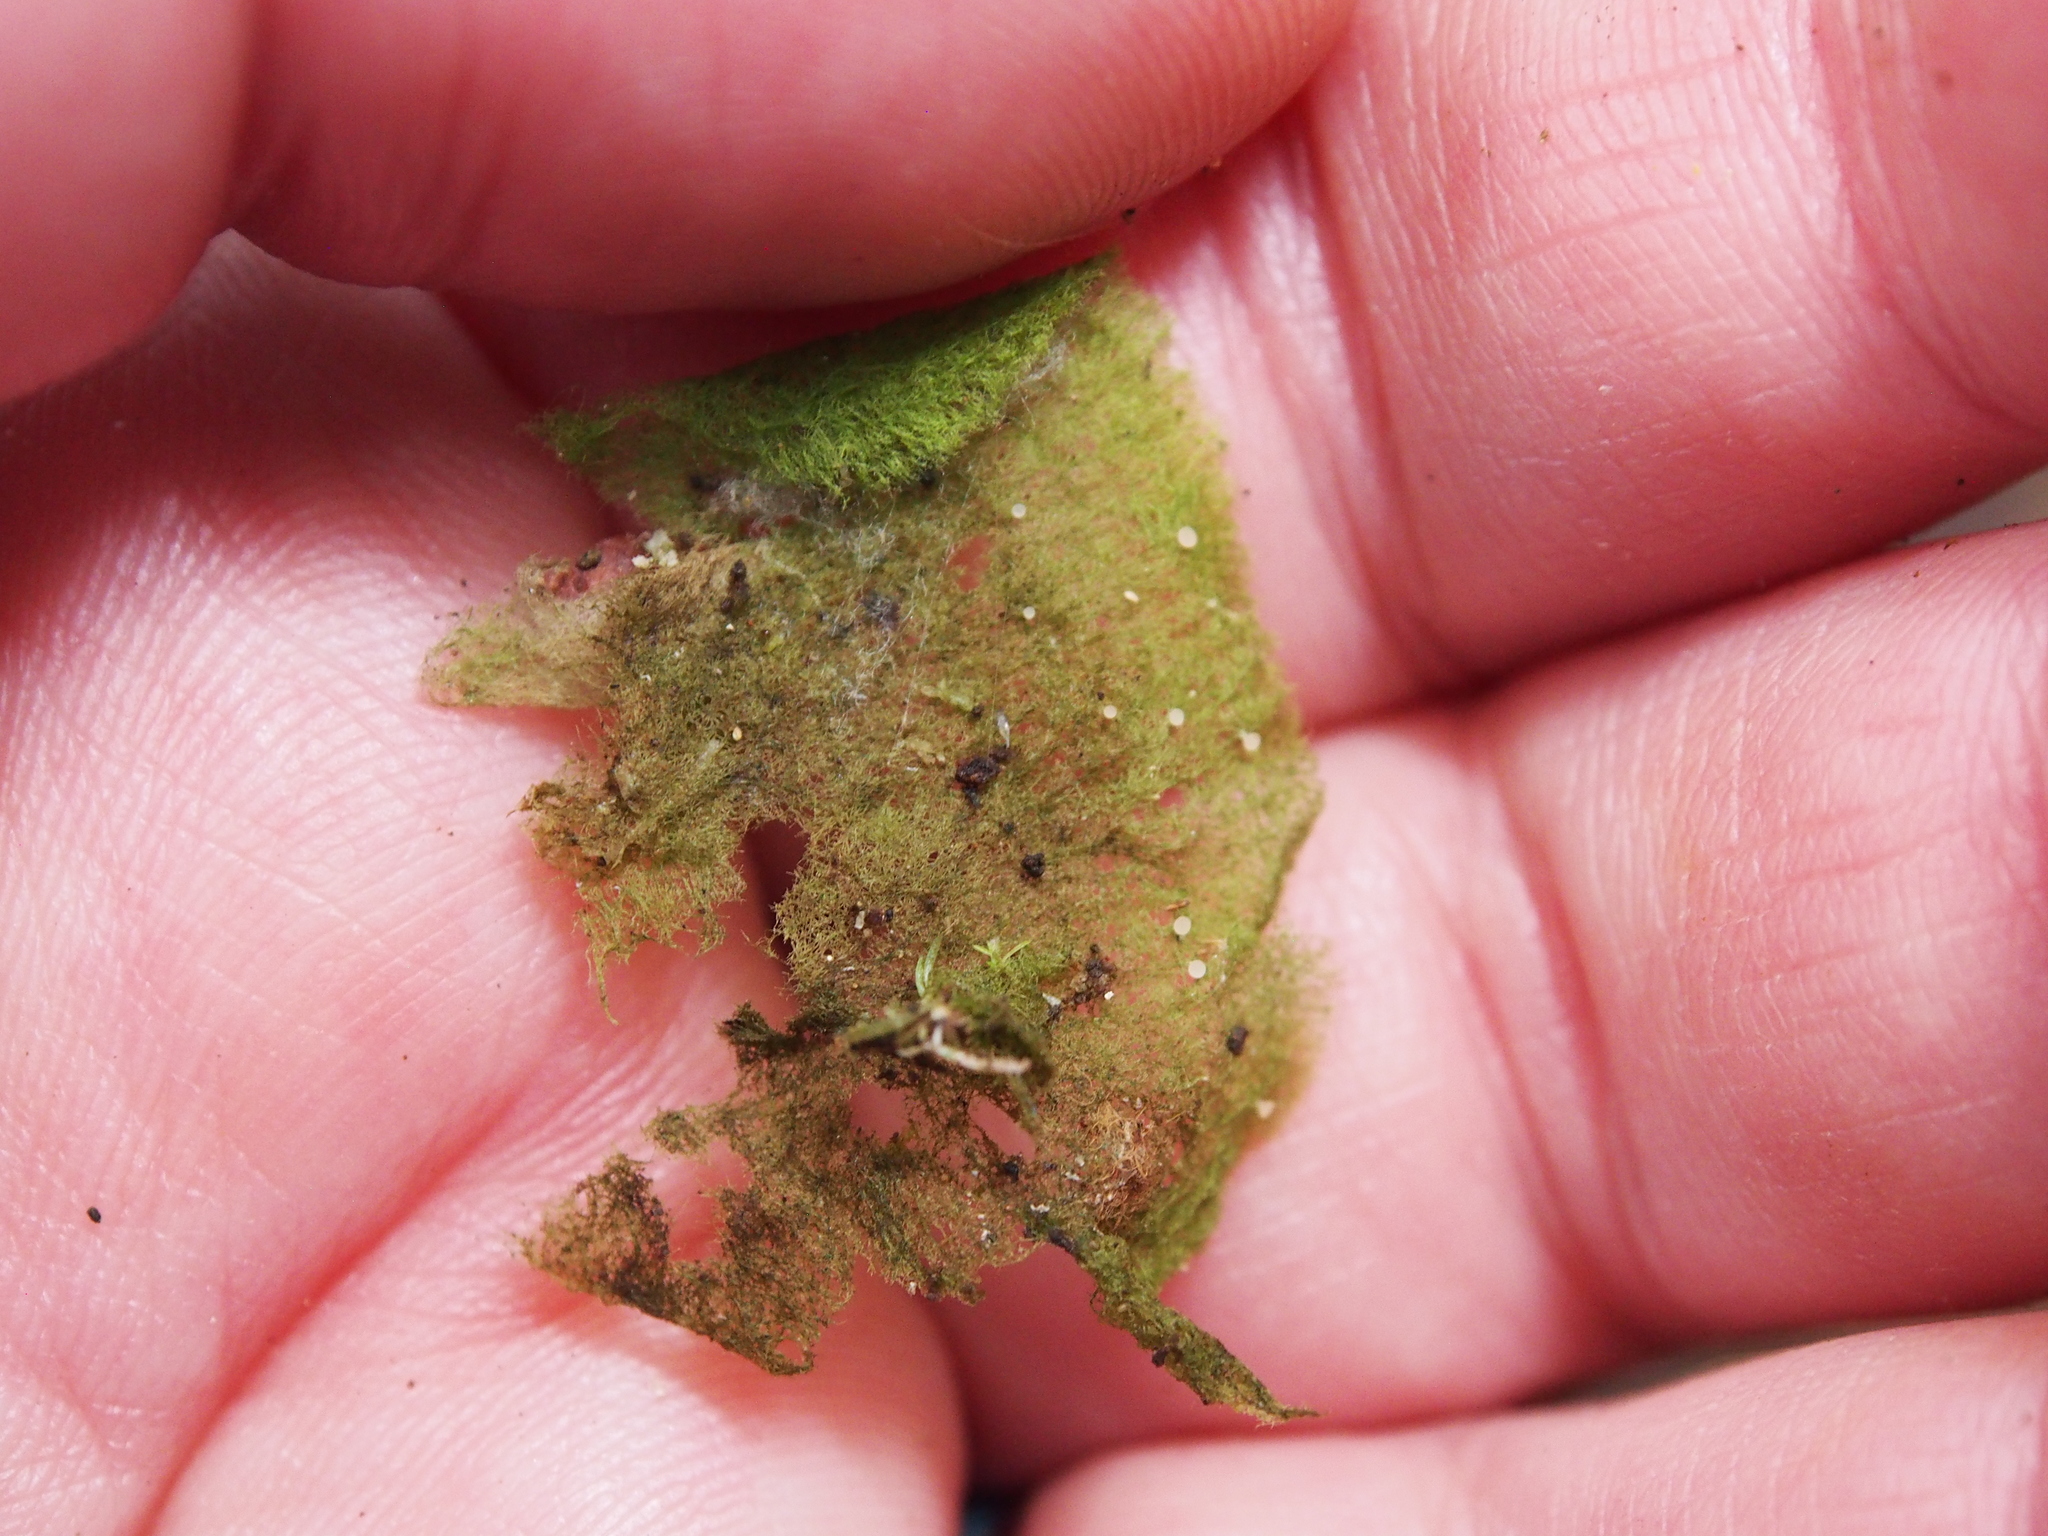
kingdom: Fungi
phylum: Ascomycota
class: Lecanoromycetes
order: Ostropales
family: Coenogoniaceae
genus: Coenogonium
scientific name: Coenogonium linkii
